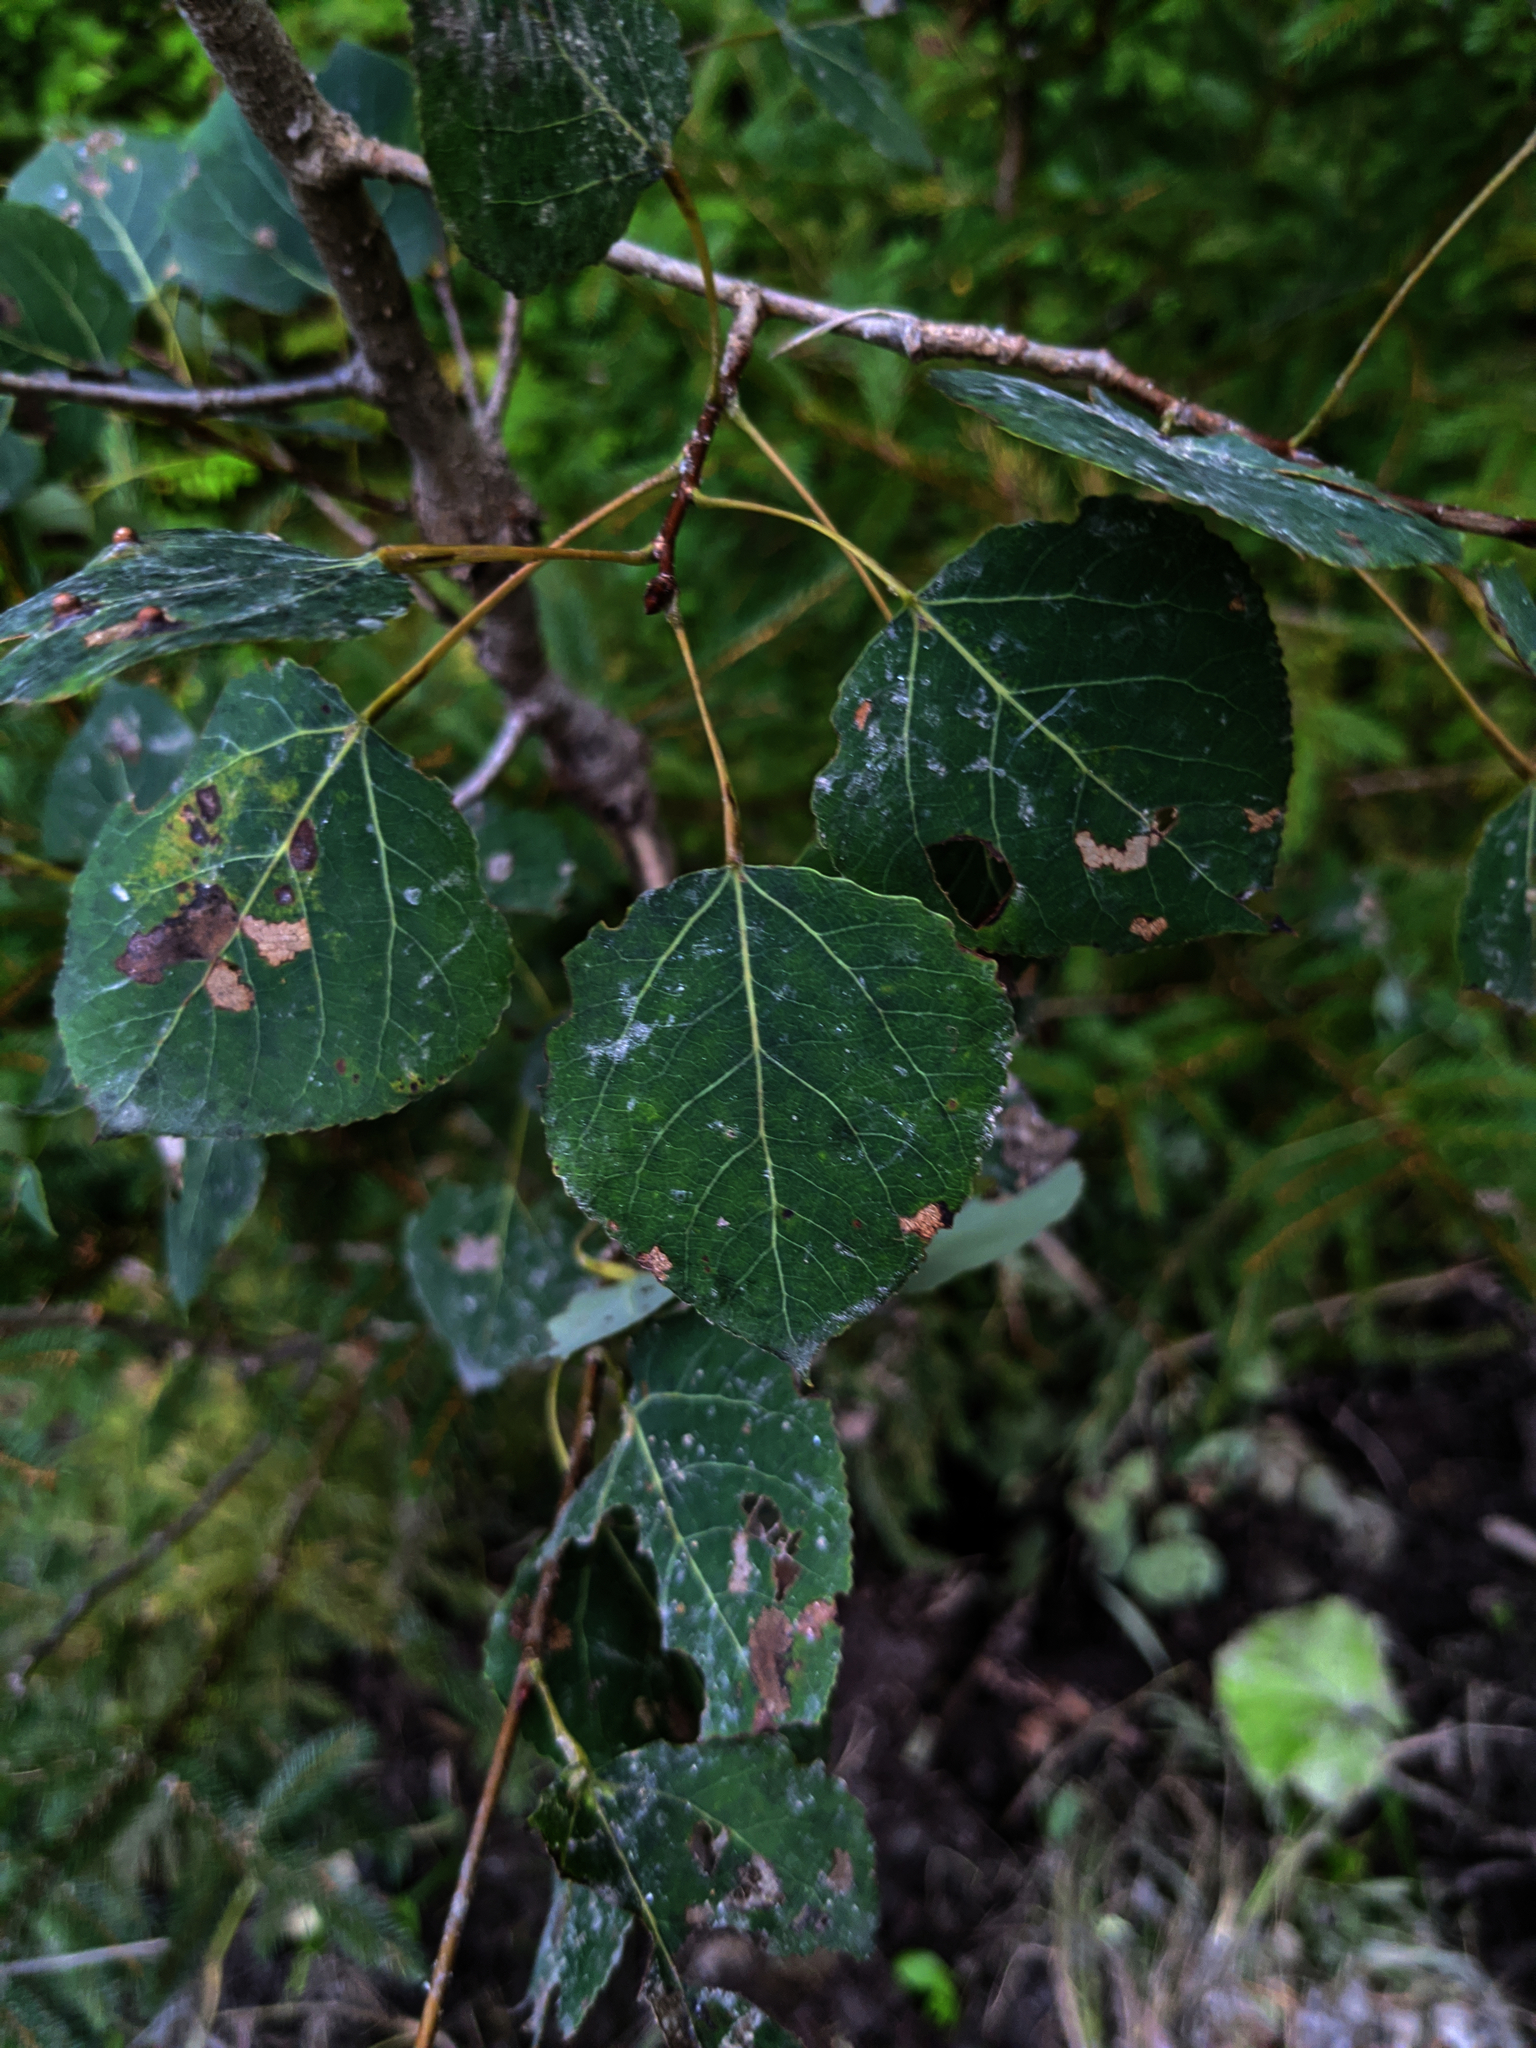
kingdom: Plantae
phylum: Tracheophyta
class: Magnoliopsida
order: Malpighiales
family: Salicaceae
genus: Populus
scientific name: Populus tremuloides
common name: Quaking aspen
